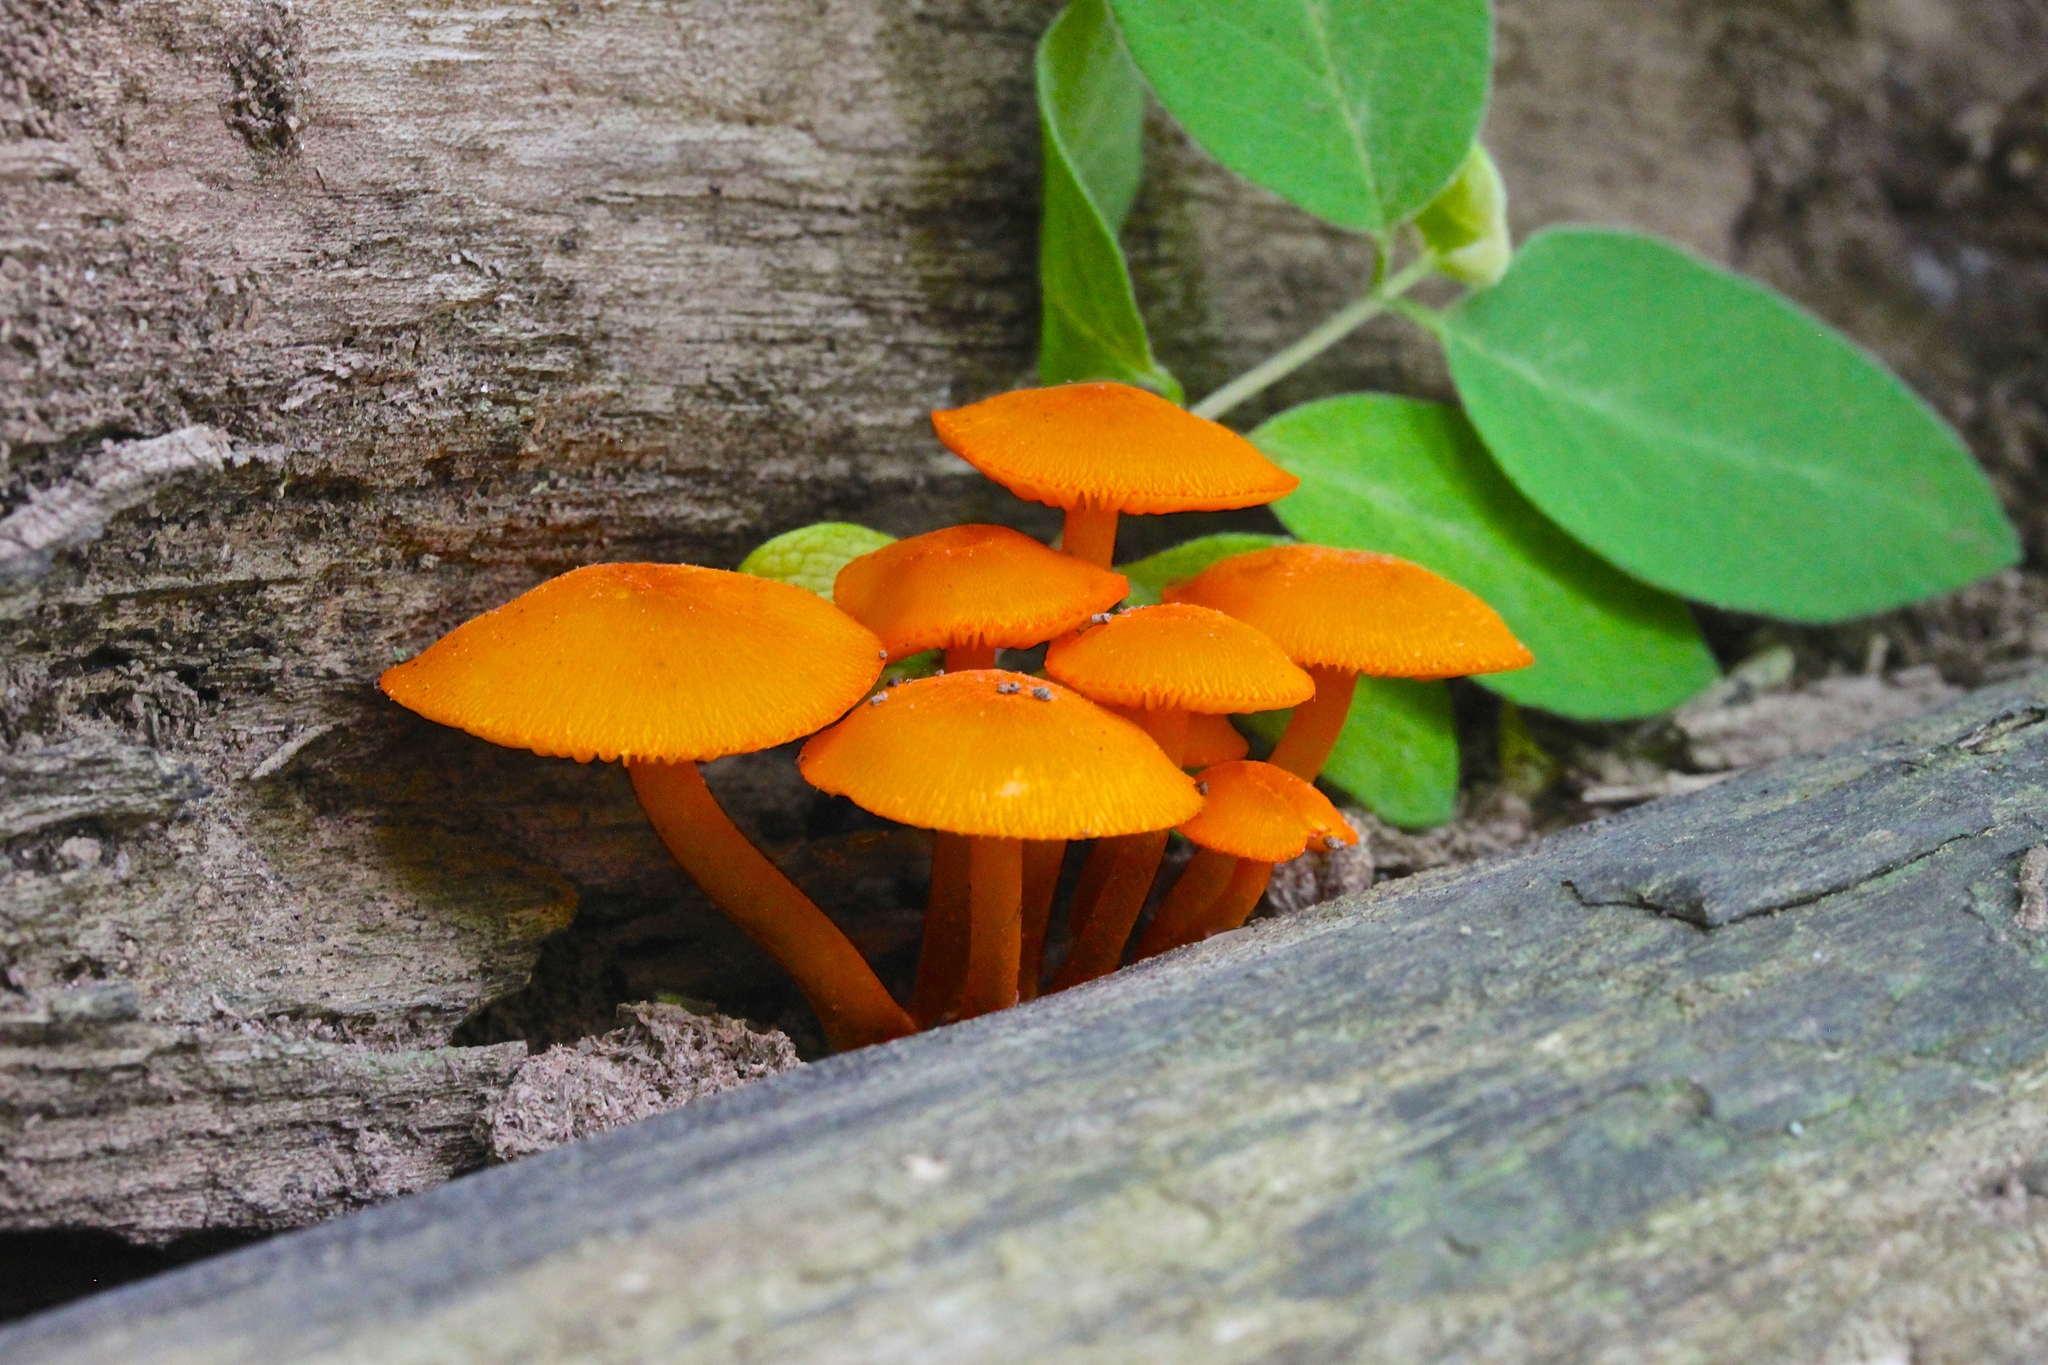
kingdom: Fungi
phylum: Basidiomycota
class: Agaricomycetes
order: Agaricales
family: Mycenaceae
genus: Mycena
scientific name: Mycena leaiana
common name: Orange mycena
